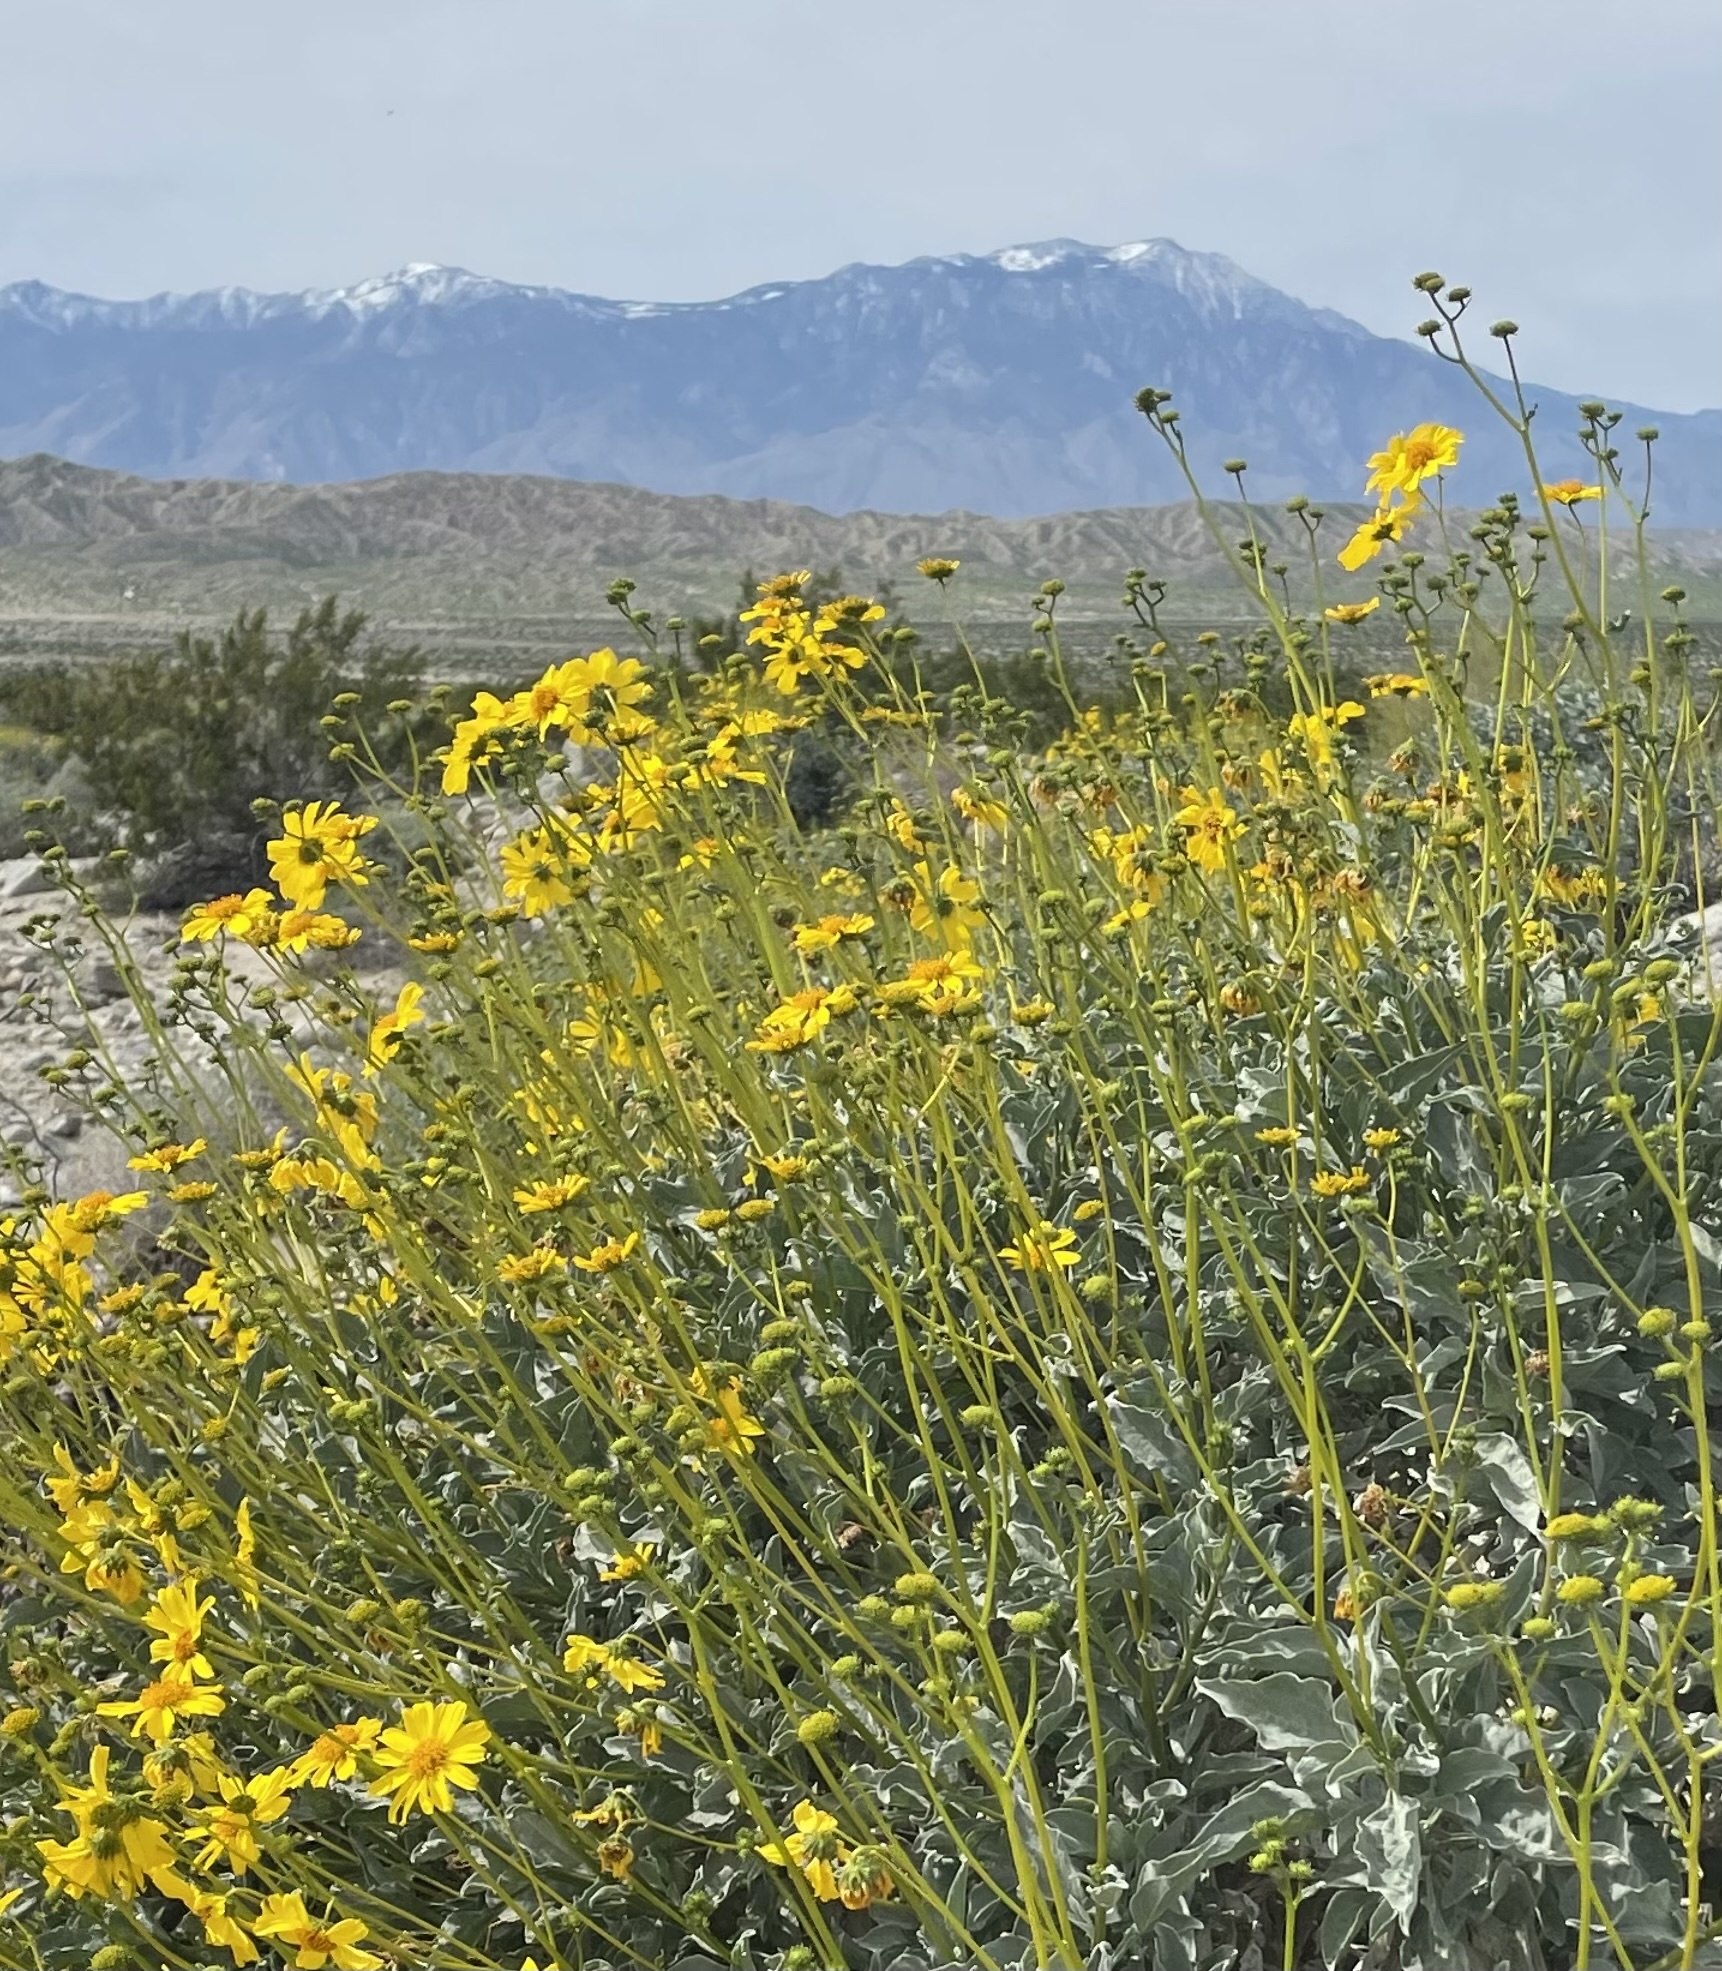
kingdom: Plantae
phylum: Tracheophyta
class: Magnoliopsida
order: Asterales
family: Asteraceae
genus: Encelia
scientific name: Encelia farinosa
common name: Brittlebush
